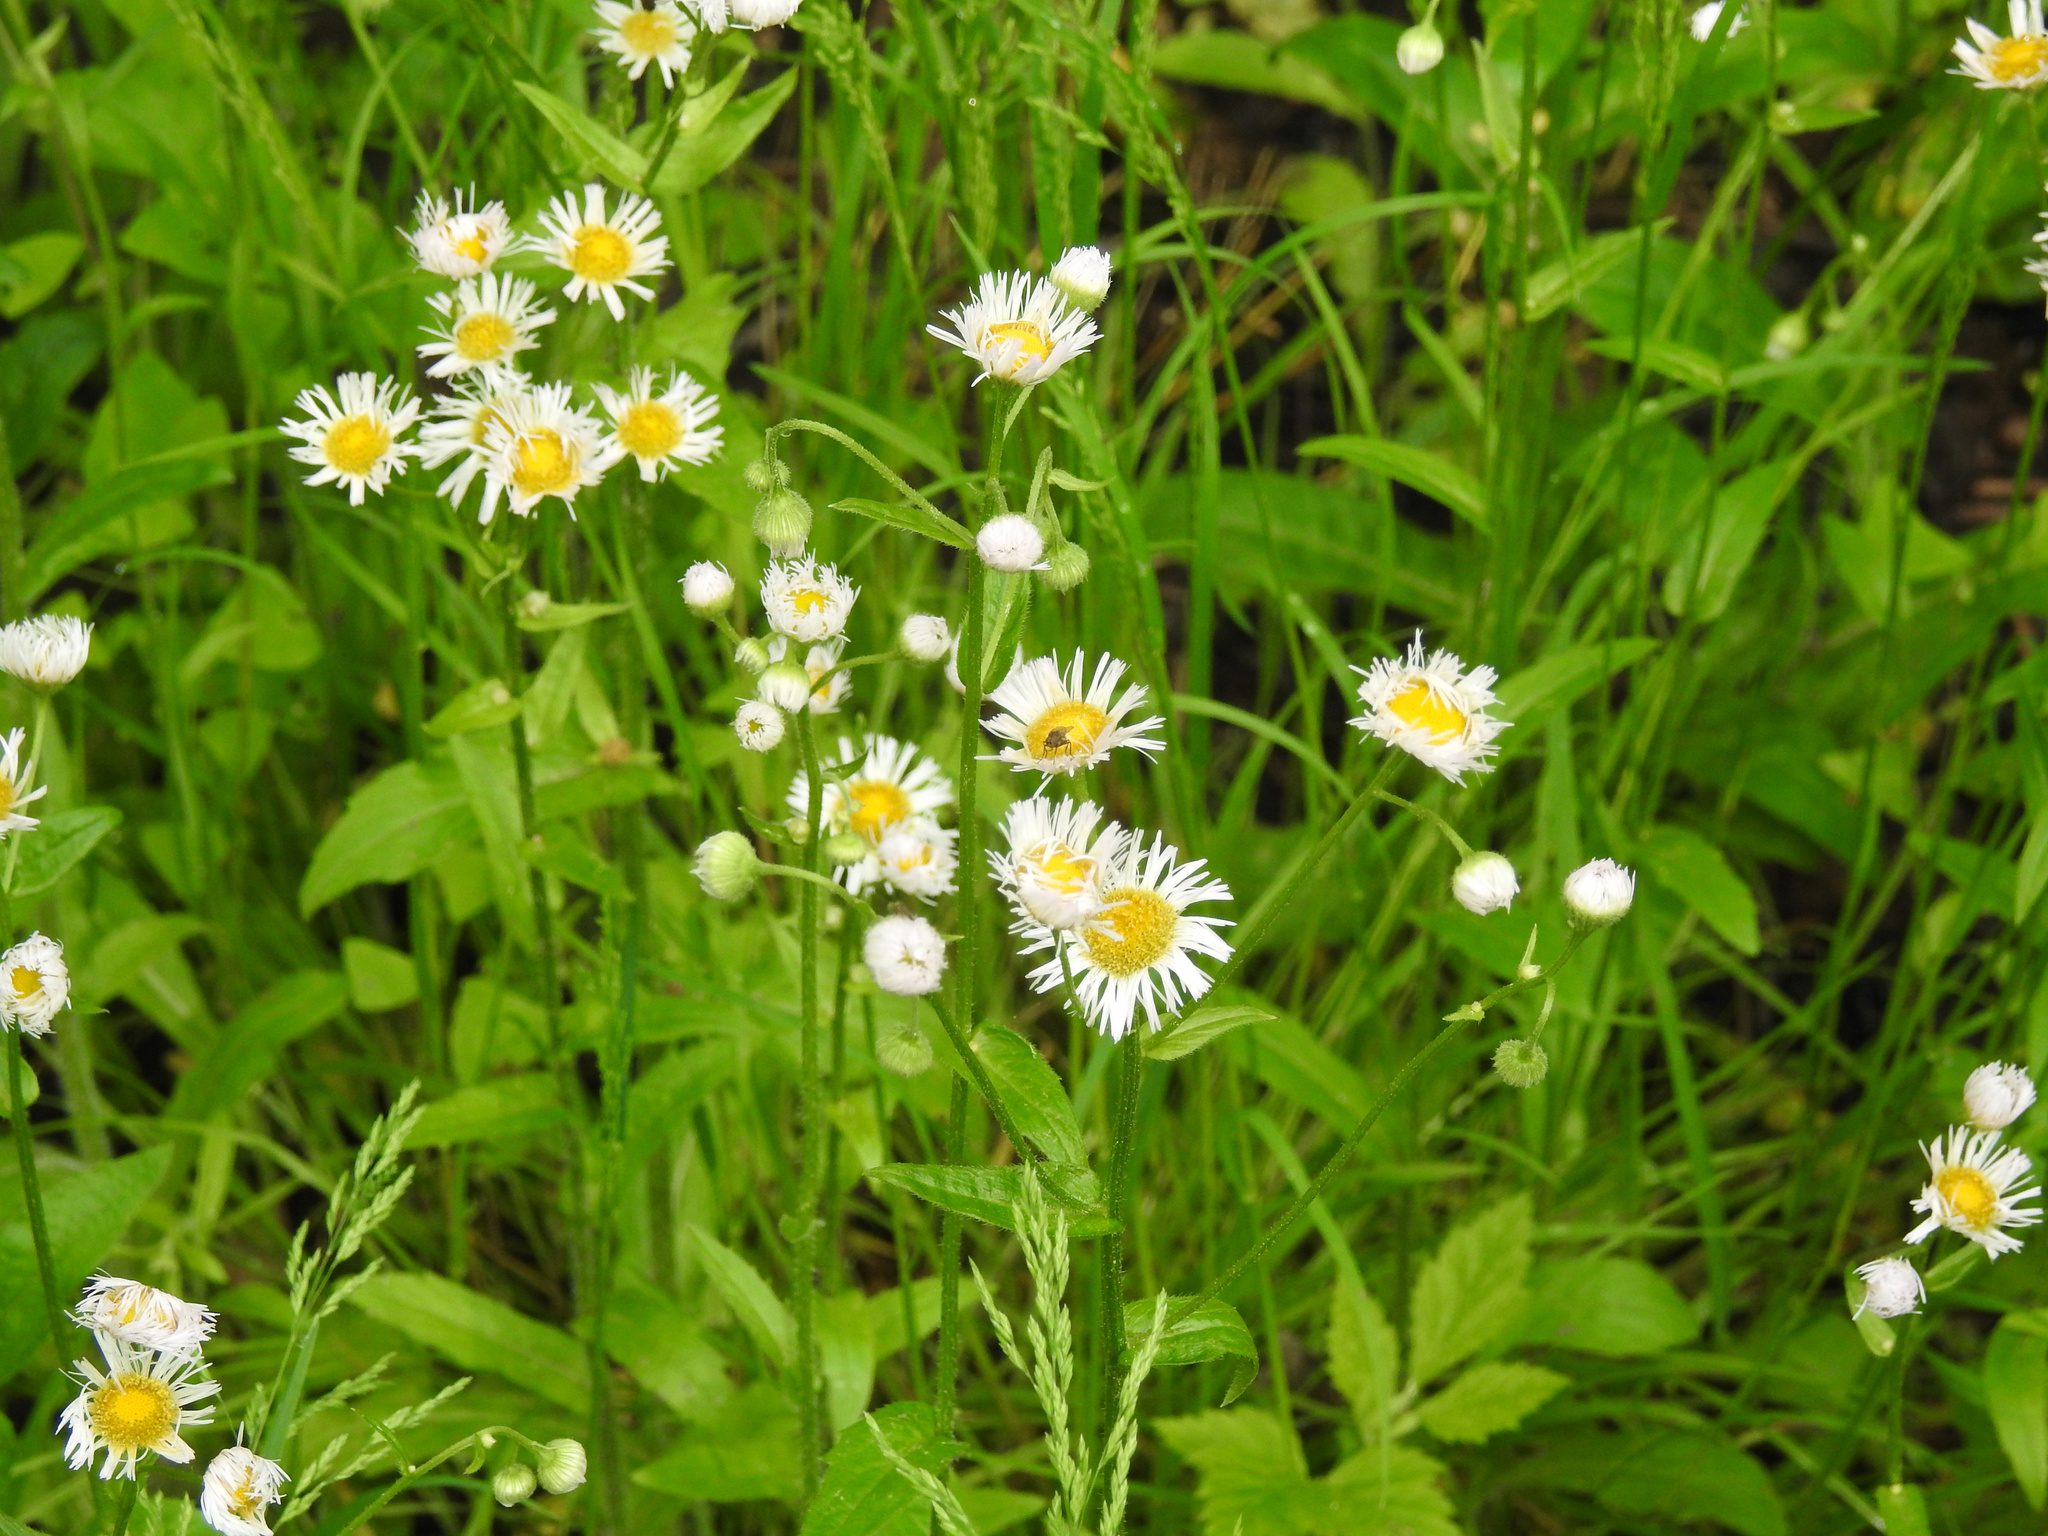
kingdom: Plantae
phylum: Tracheophyta
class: Magnoliopsida
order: Asterales
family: Asteraceae
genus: Erigeron
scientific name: Erigeron philadelphicus
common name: Robin's-plantain
